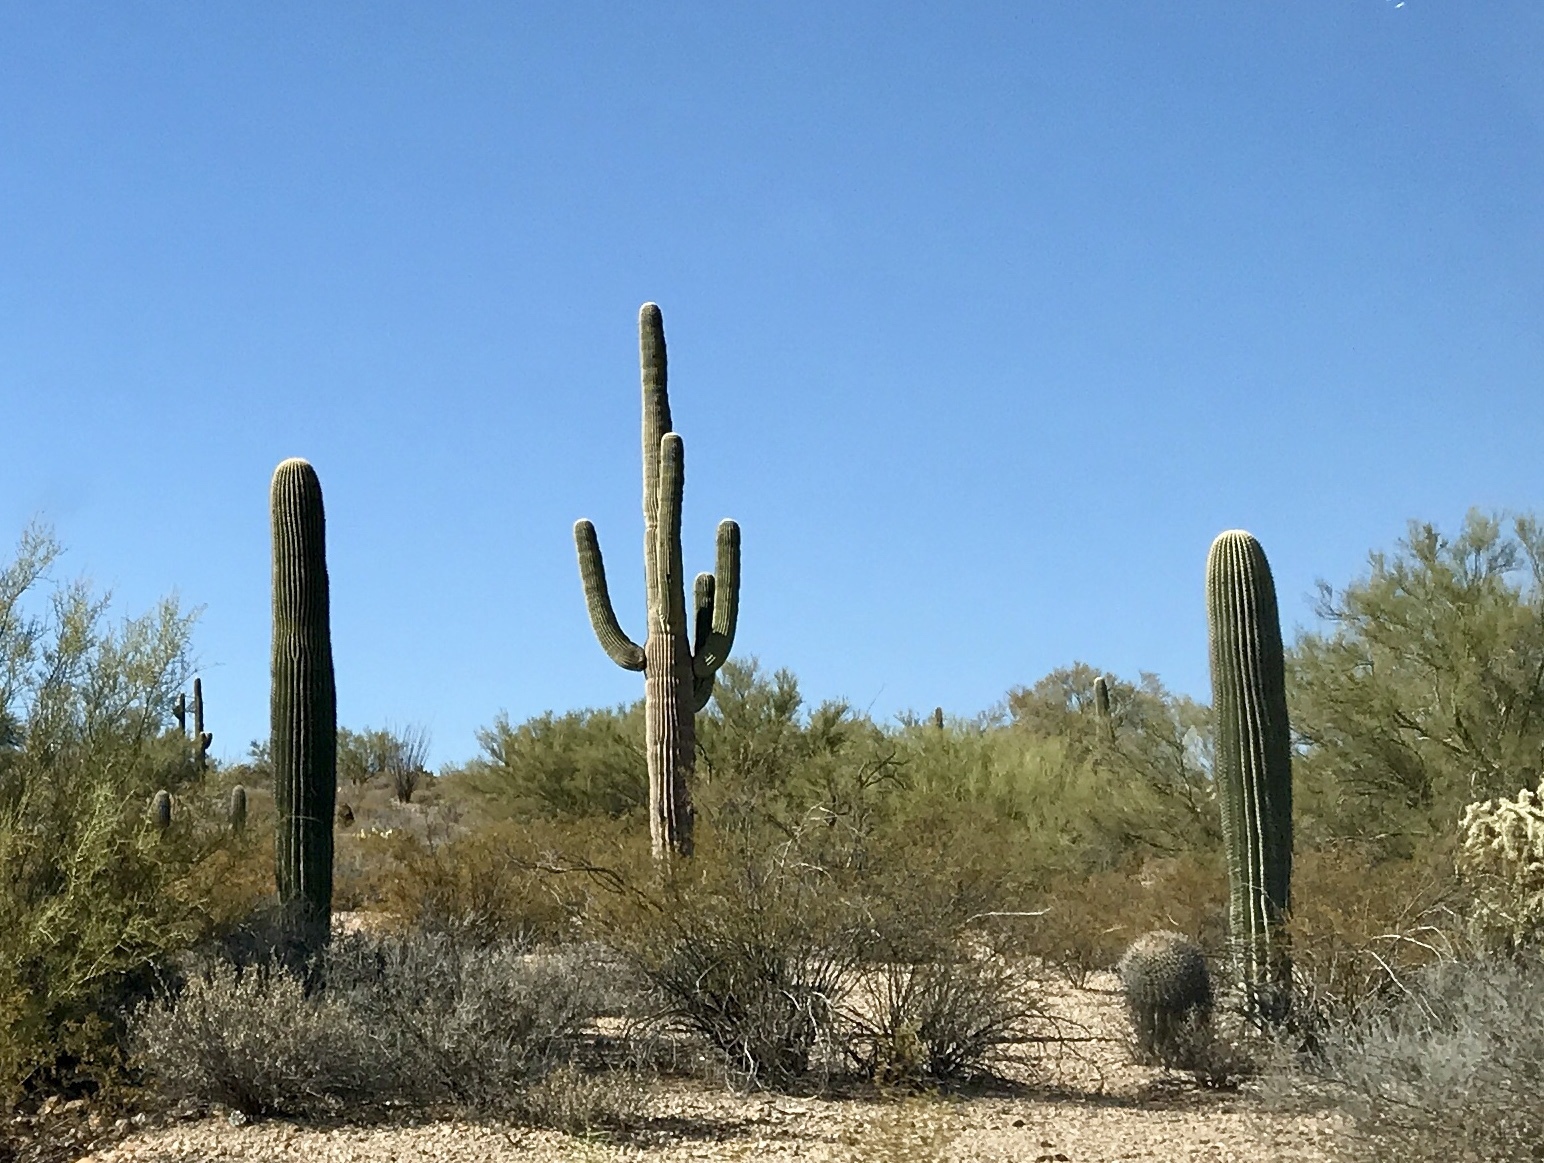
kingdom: Plantae
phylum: Tracheophyta
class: Magnoliopsida
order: Caryophyllales
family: Cactaceae
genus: Carnegiea
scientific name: Carnegiea gigantea
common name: Saguaro
